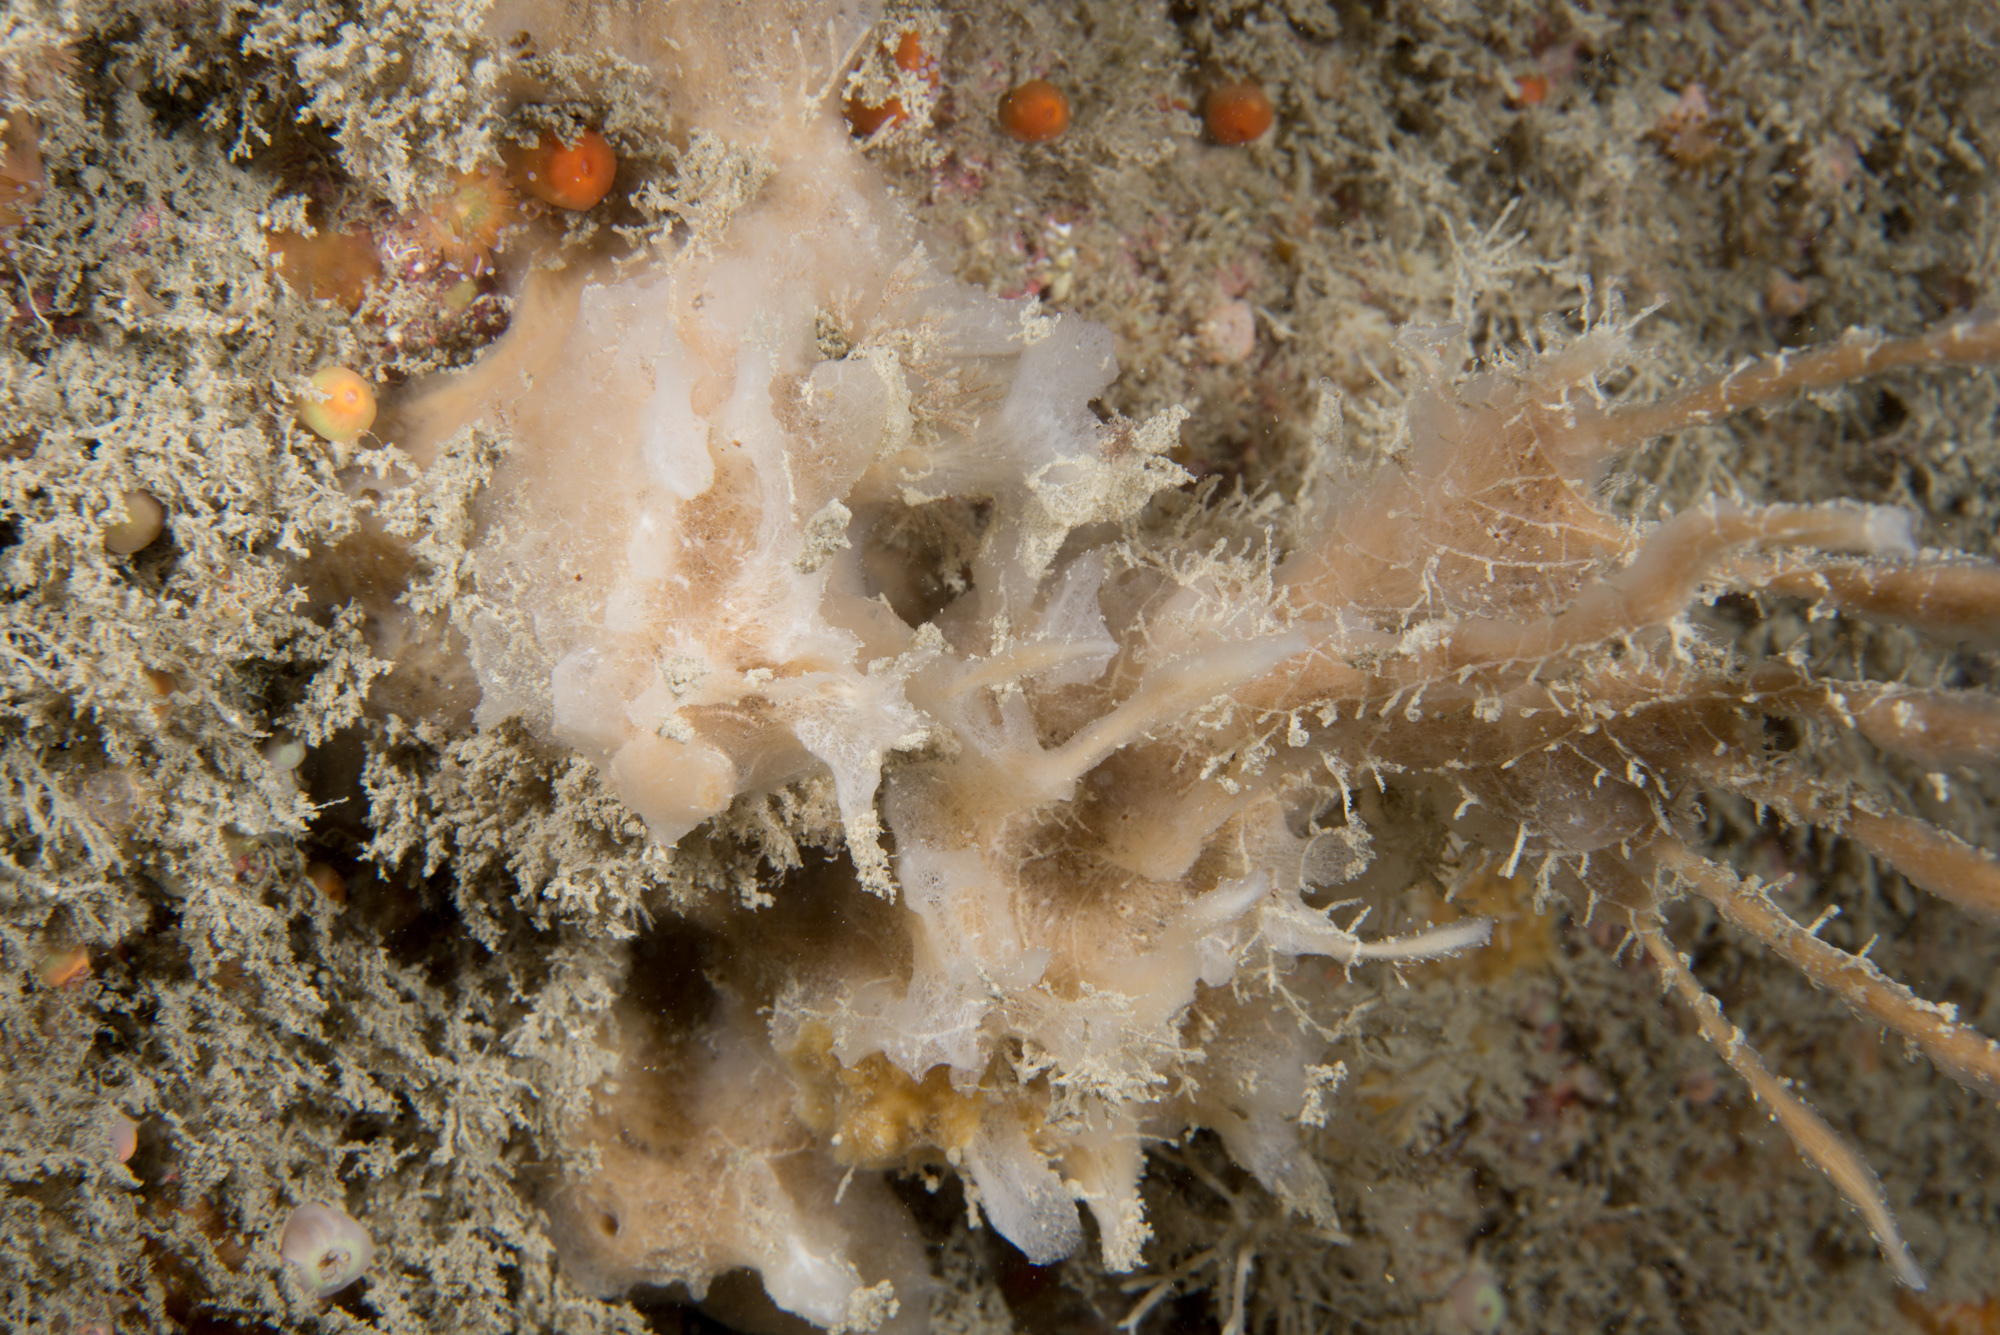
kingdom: Animalia
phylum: Porifera
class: Demospongiae
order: Haplosclerida
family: Chalinidae
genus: Haliclona
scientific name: Haliclona angulata
